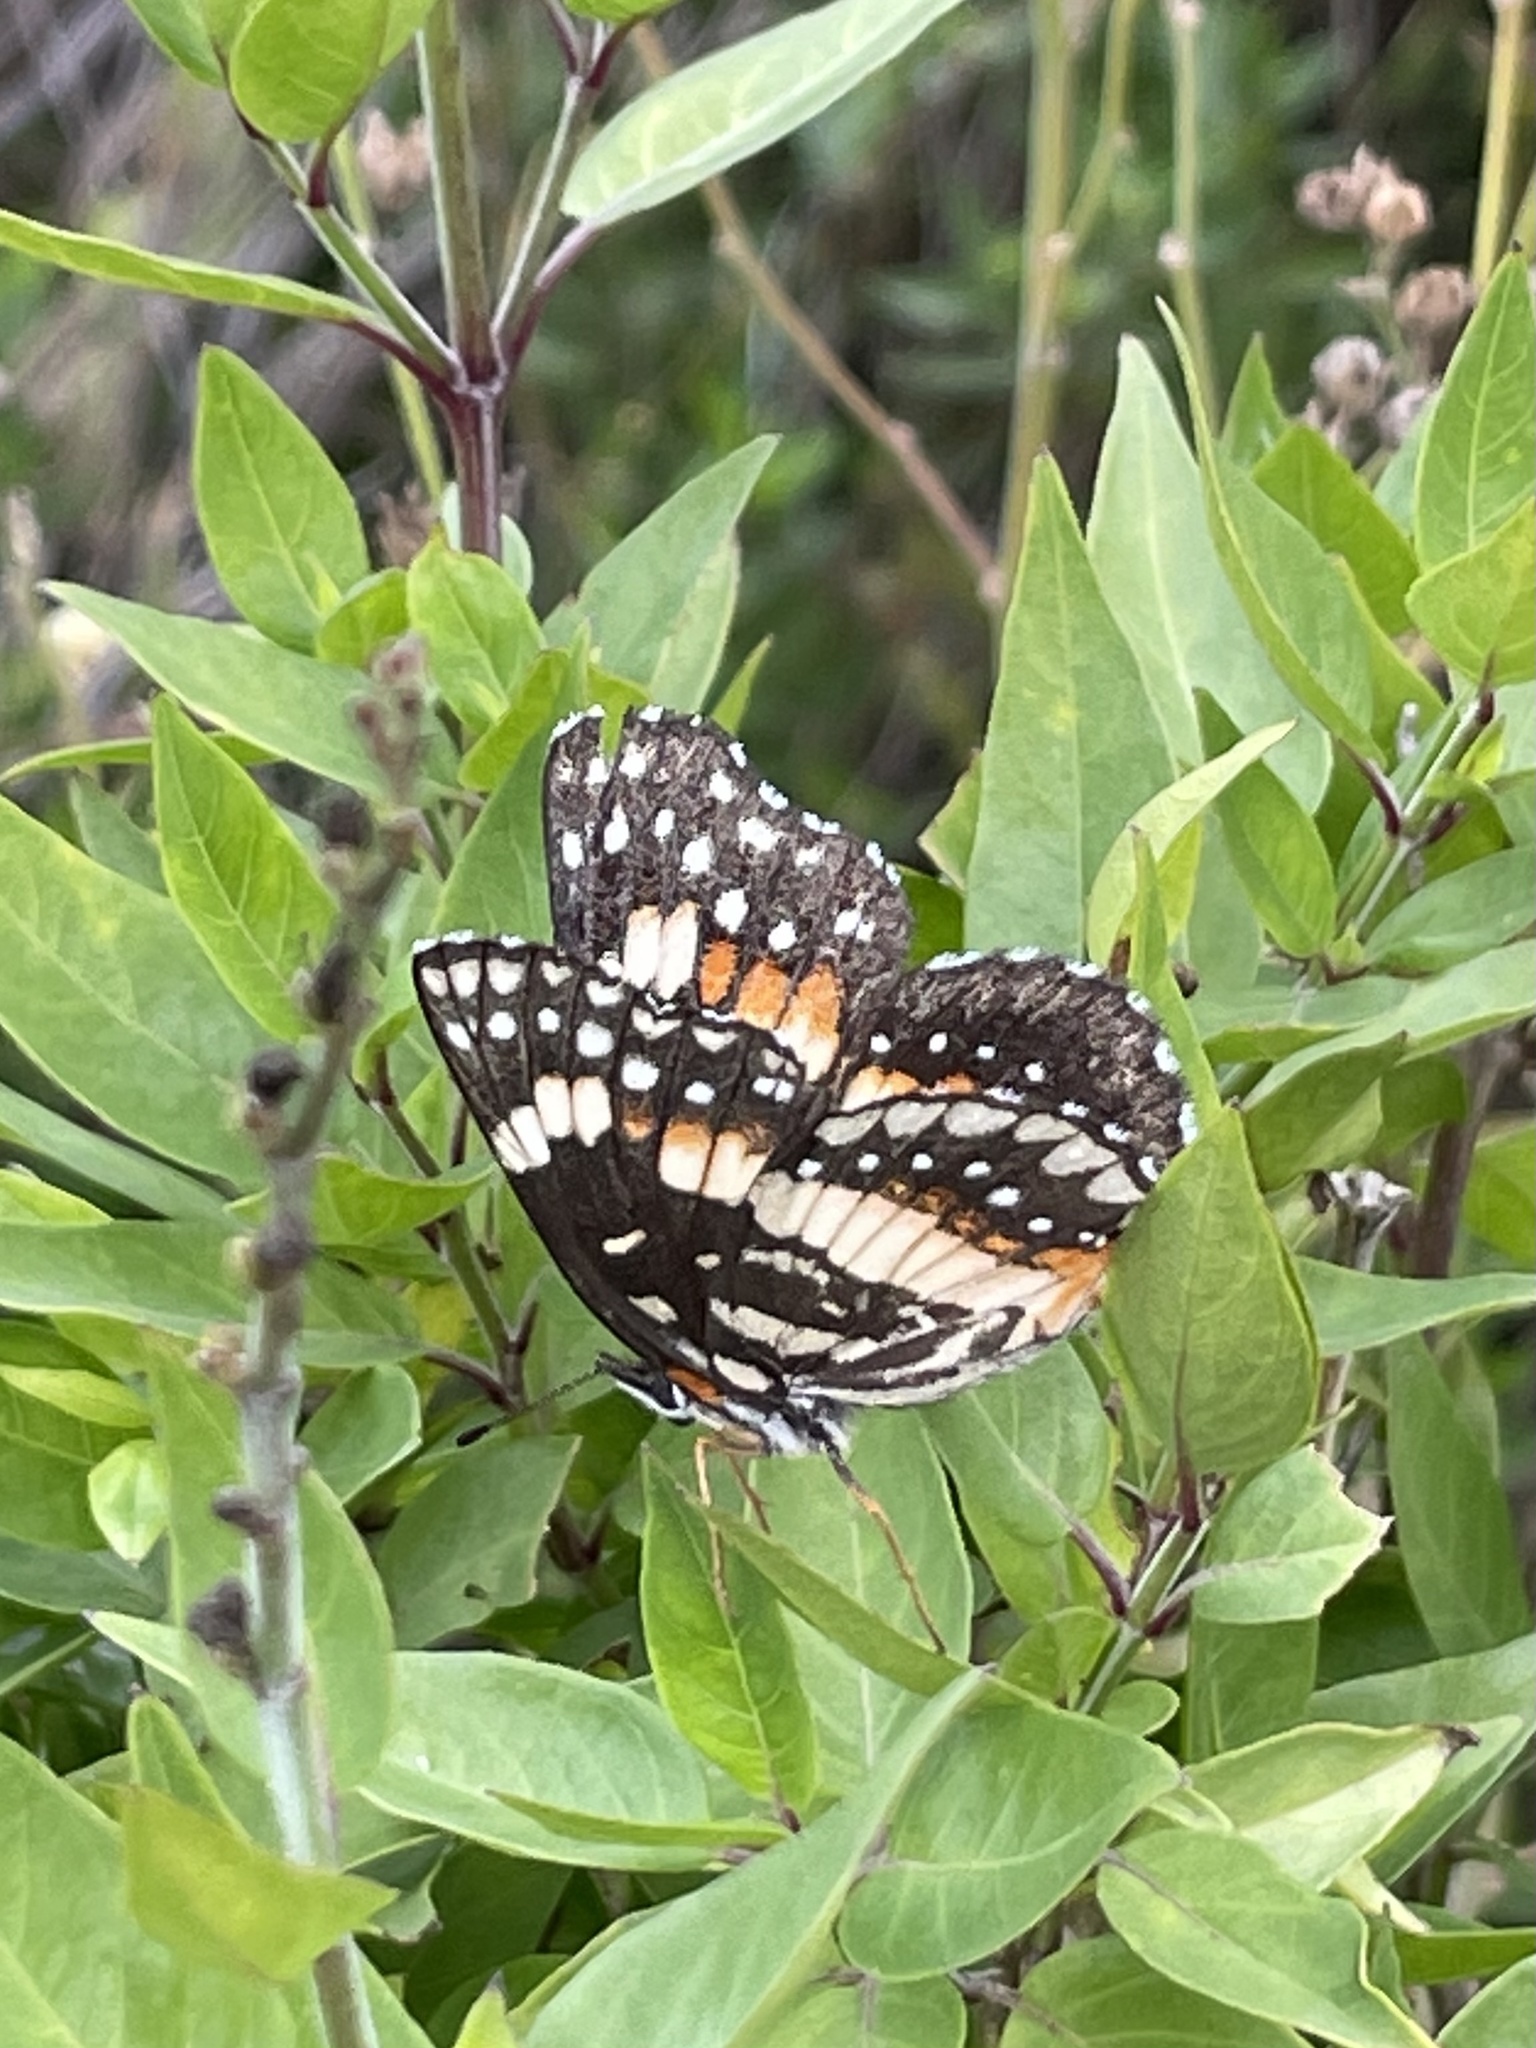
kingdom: Animalia
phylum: Arthropoda
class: Insecta
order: Lepidoptera
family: Nymphalidae
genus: Chlosyne
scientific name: Chlosyne lacinia
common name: Bordered patch
